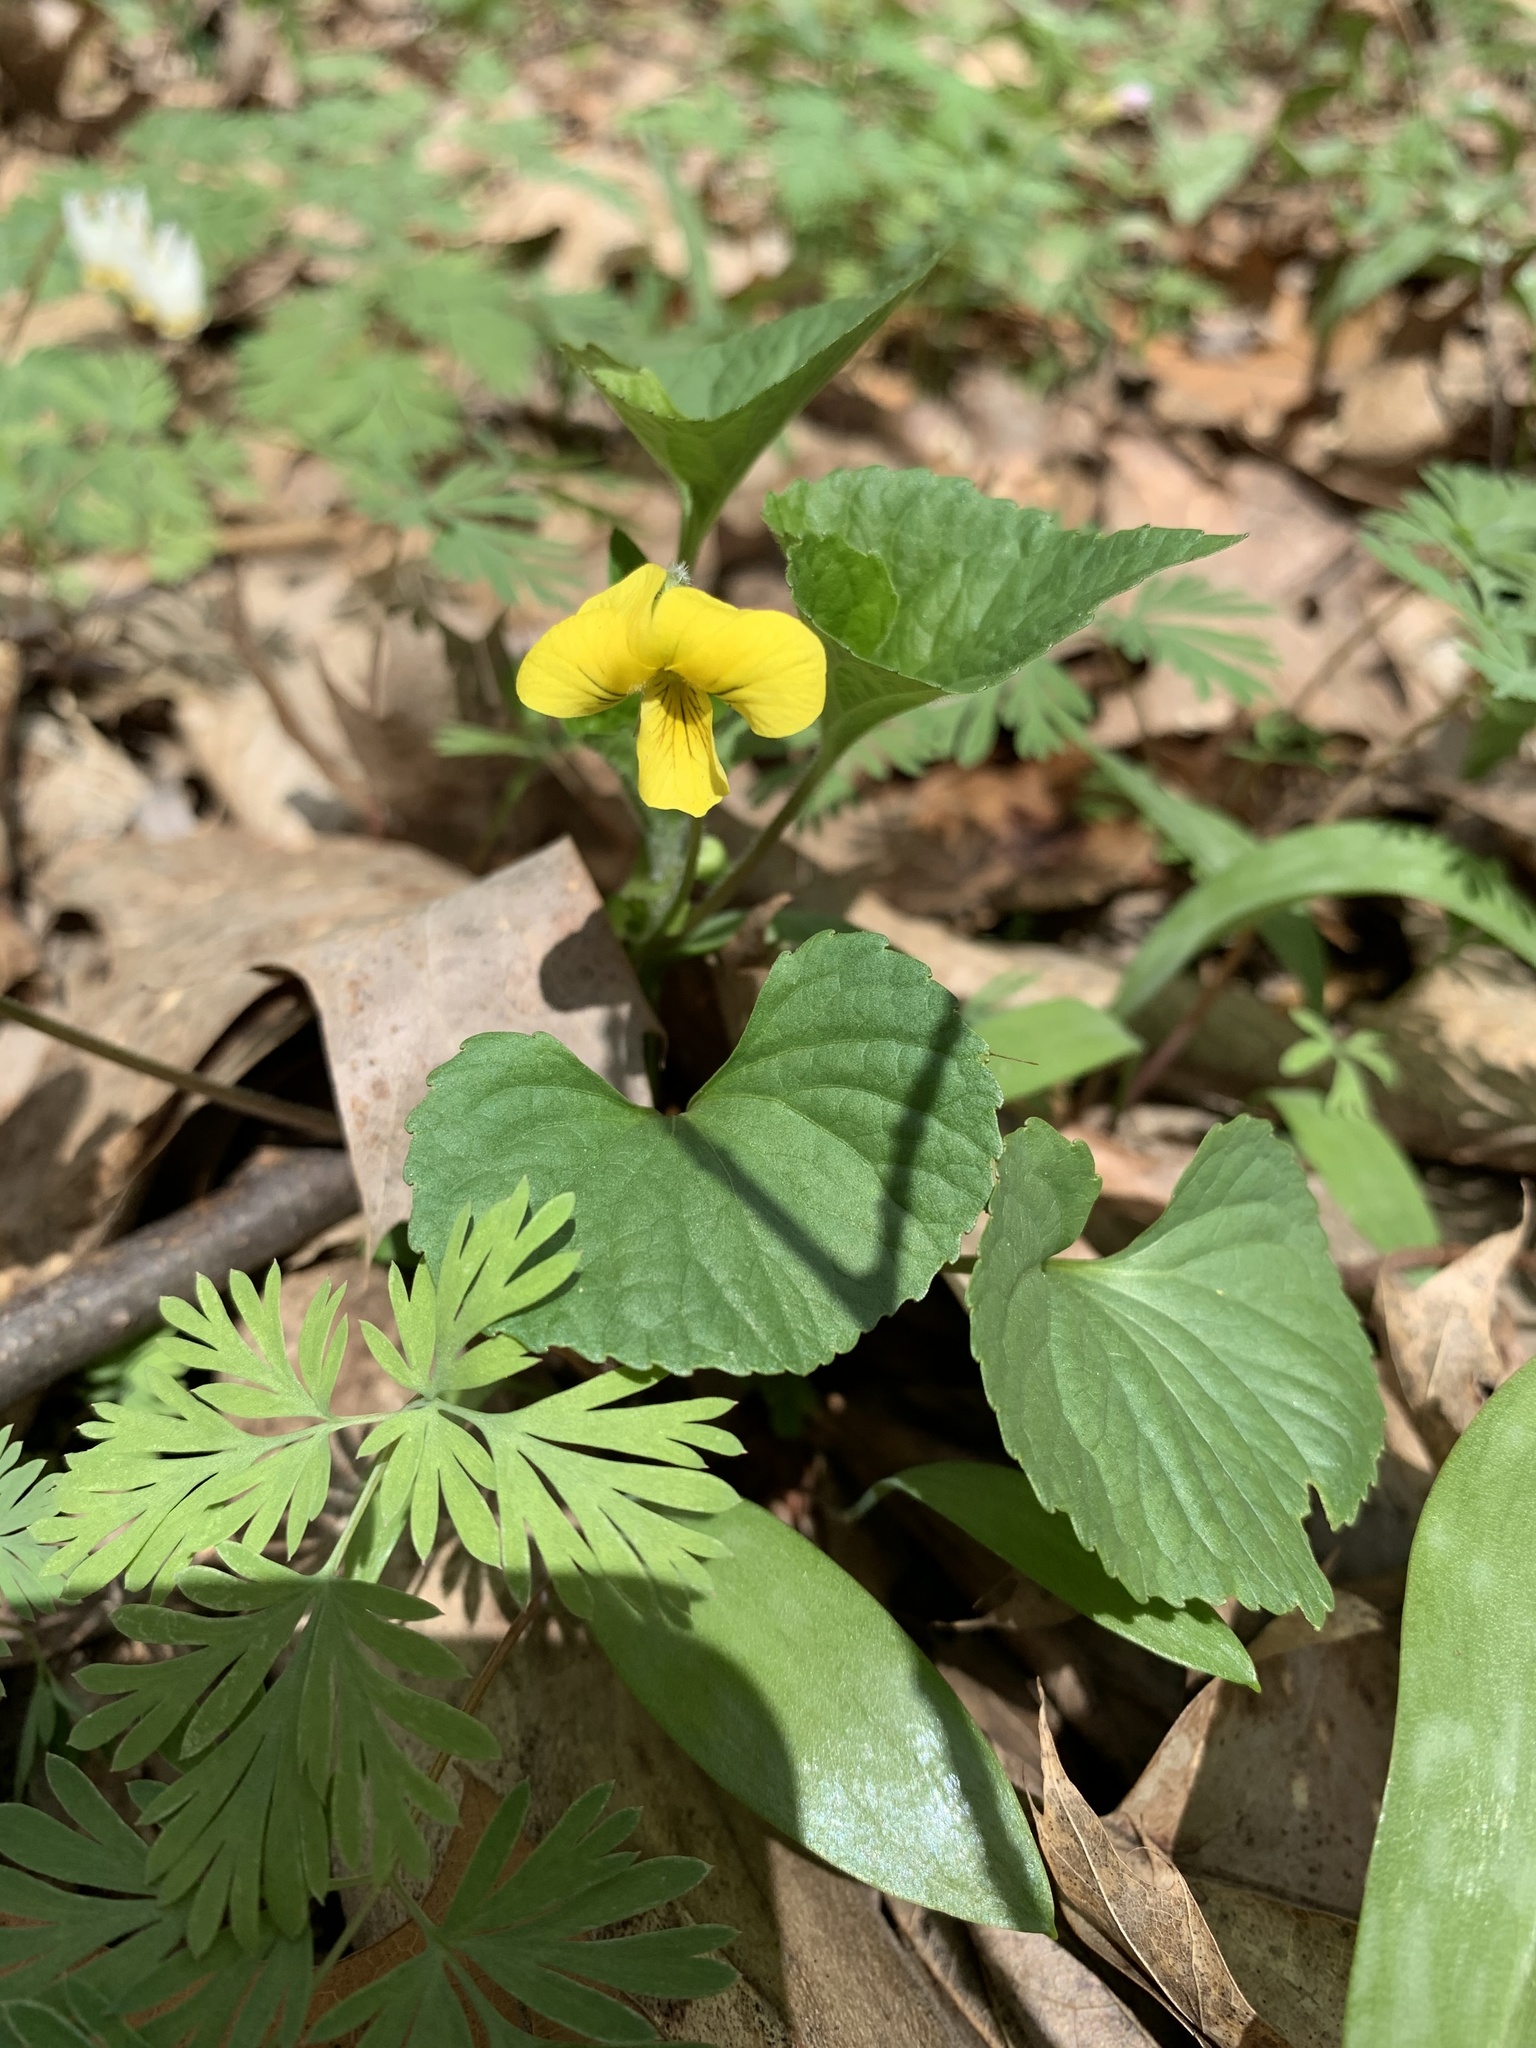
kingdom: Plantae
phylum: Tracheophyta
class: Magnoliopsida
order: Malpighiales
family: Violaceae
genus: Viola
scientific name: Viola eriocarpa
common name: Smooth yellow violet
